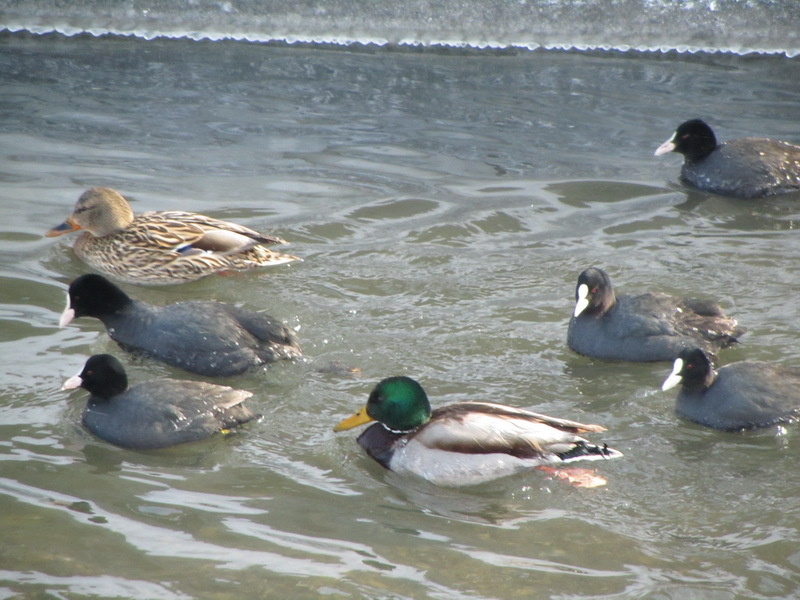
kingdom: Animalia
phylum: Chordata
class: Aves
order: Anseriformes
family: Anatidae
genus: Anas
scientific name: Anas platyrhynchos
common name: Mallard
